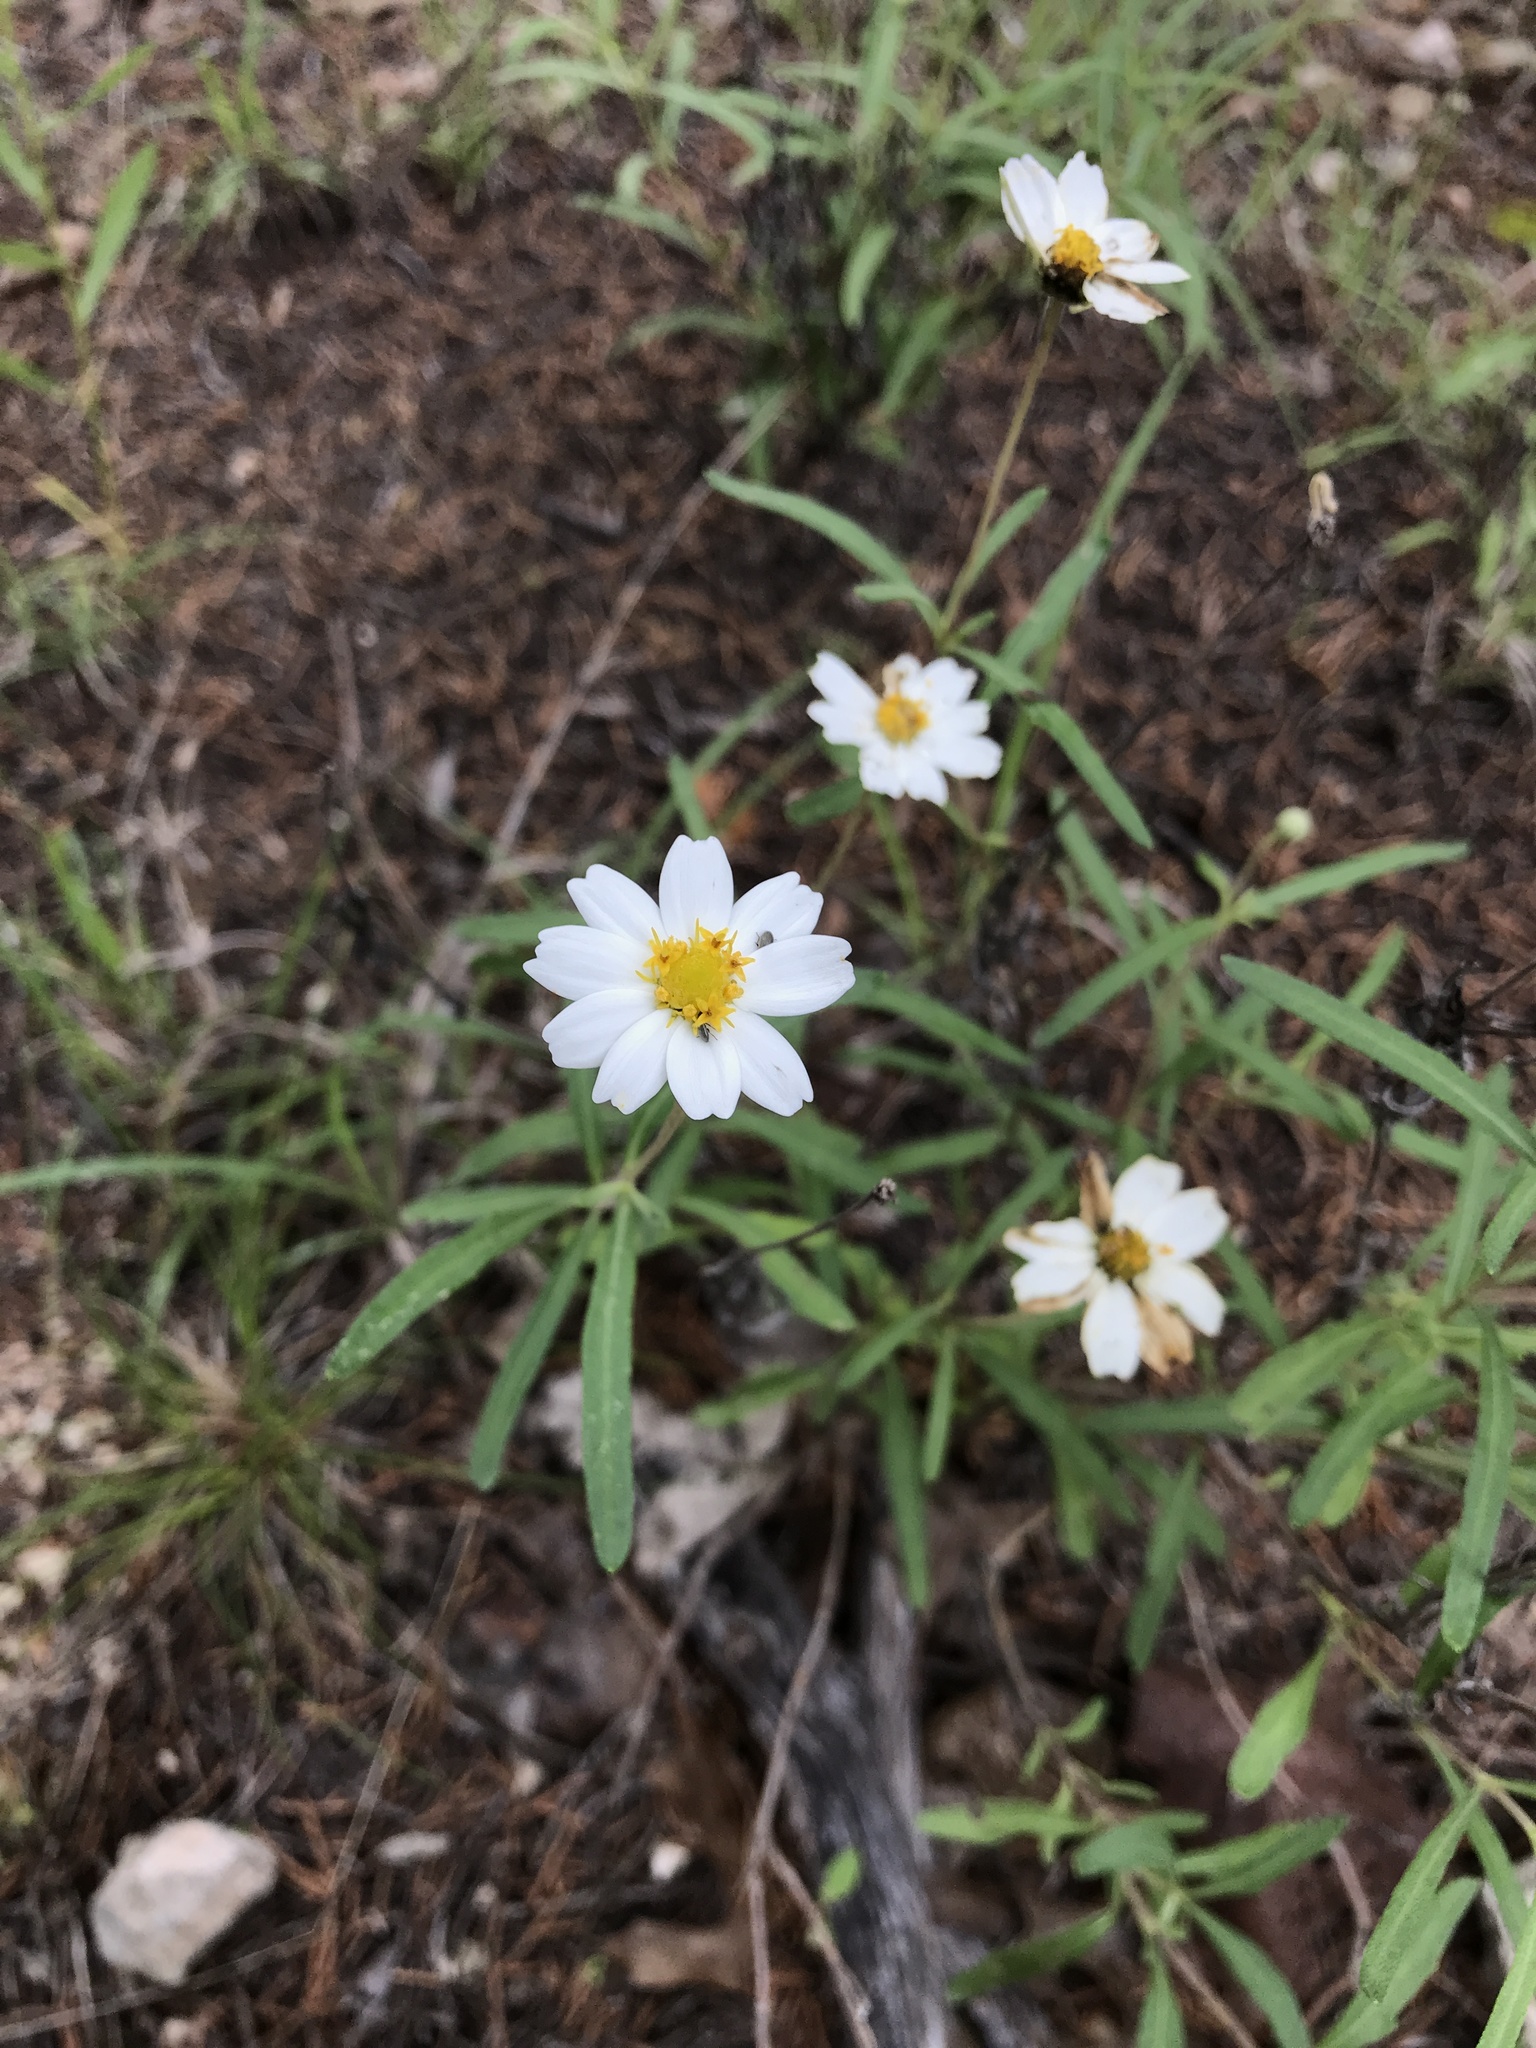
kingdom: Plantae
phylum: Tracheophyta
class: Magnoliopsida
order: Asterales
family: Asteraceae
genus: Melampodium
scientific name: Melampodium leucanthum
